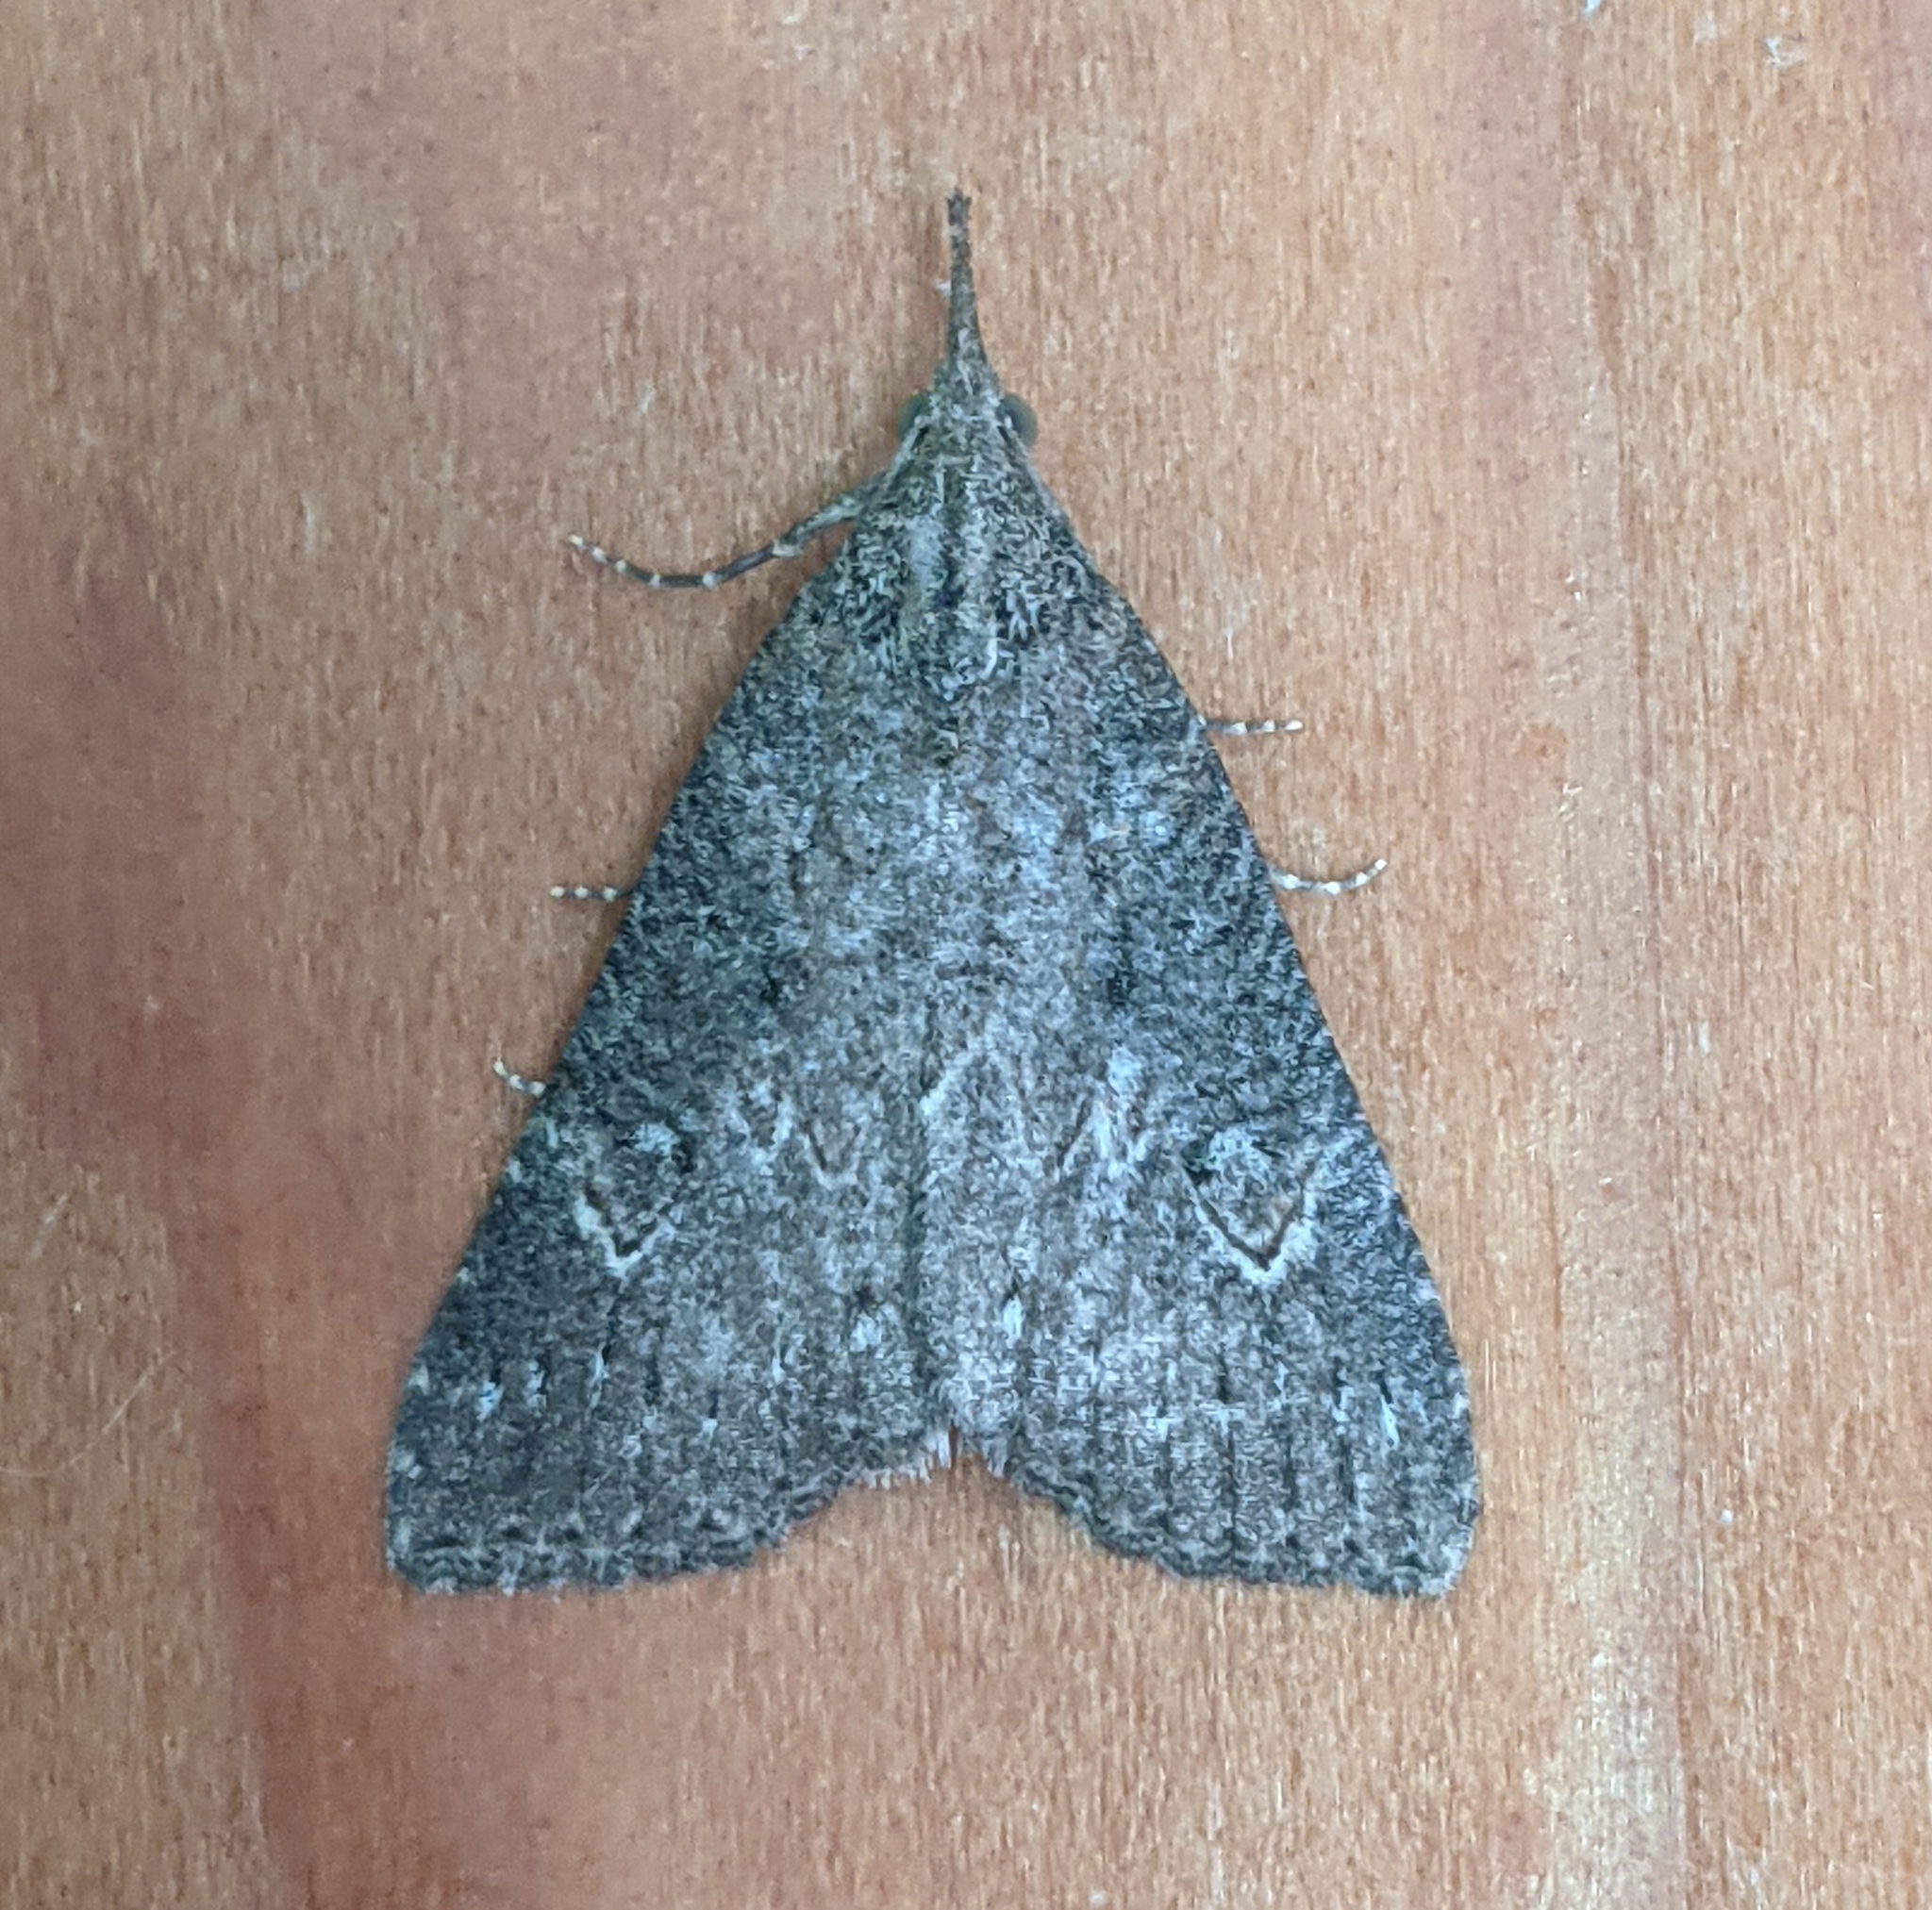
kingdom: Animalia
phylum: Arthropoda
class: Insecta
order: Lepidoptera
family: Erebidae
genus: Hypena
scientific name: Hypena humuli
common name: Hop vine snout
